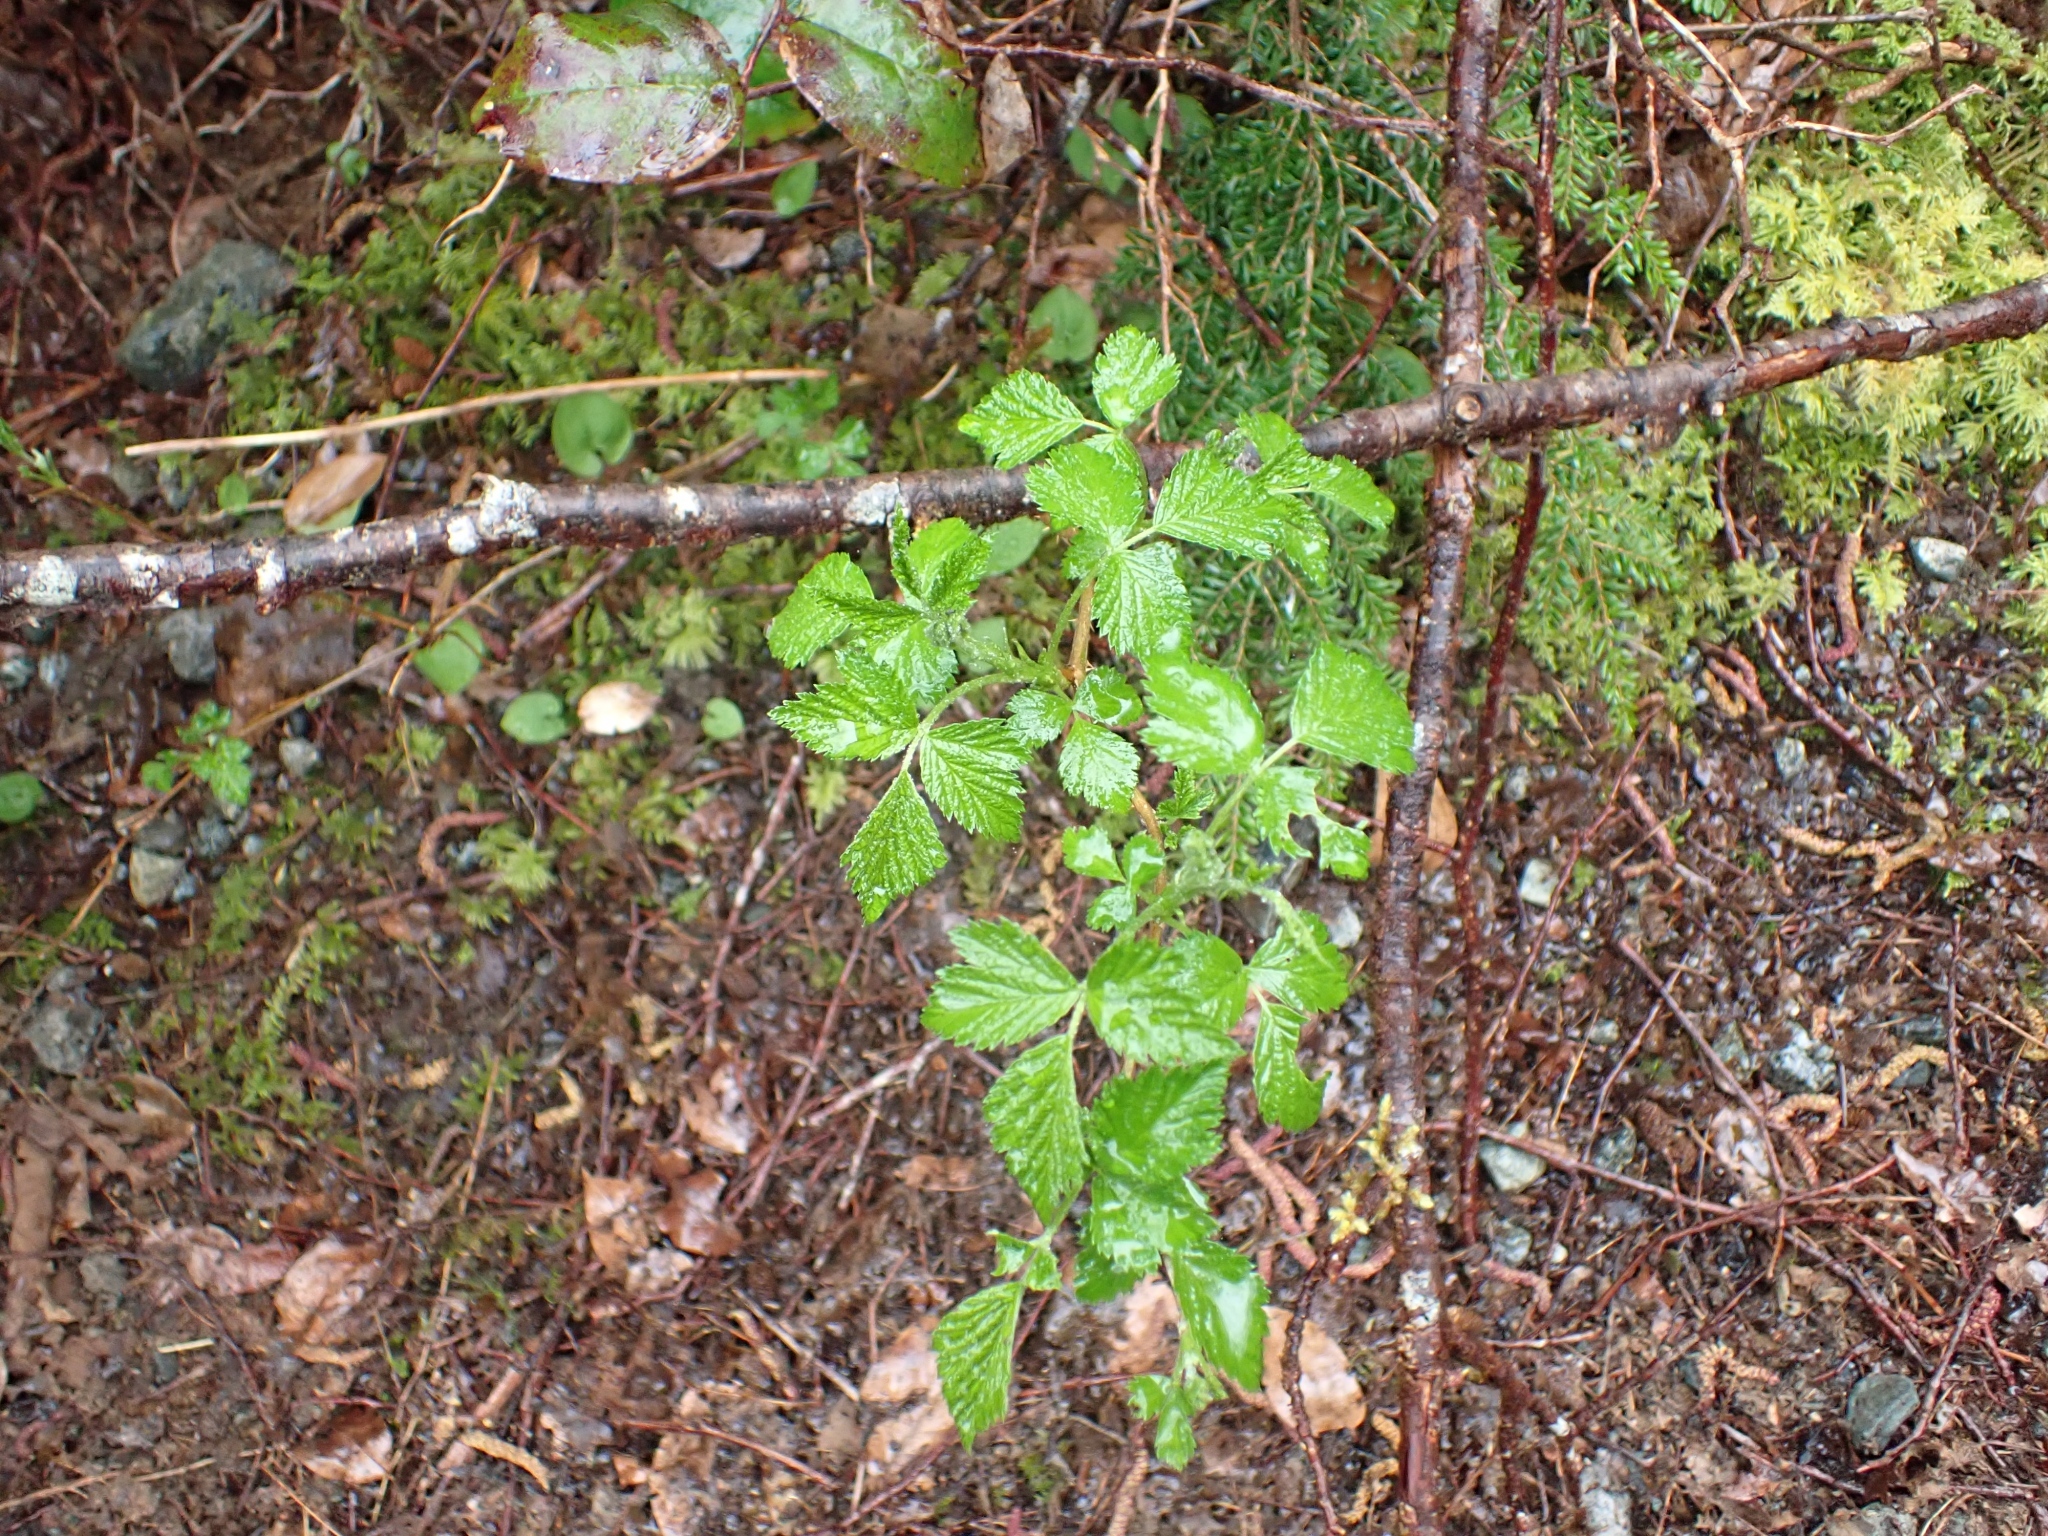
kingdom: Plantae
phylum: Tracheophyta
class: Magnoliopsida
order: Rosales
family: Rosaceae
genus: Rubus
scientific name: Rubus spectabilis
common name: Salmonberry
